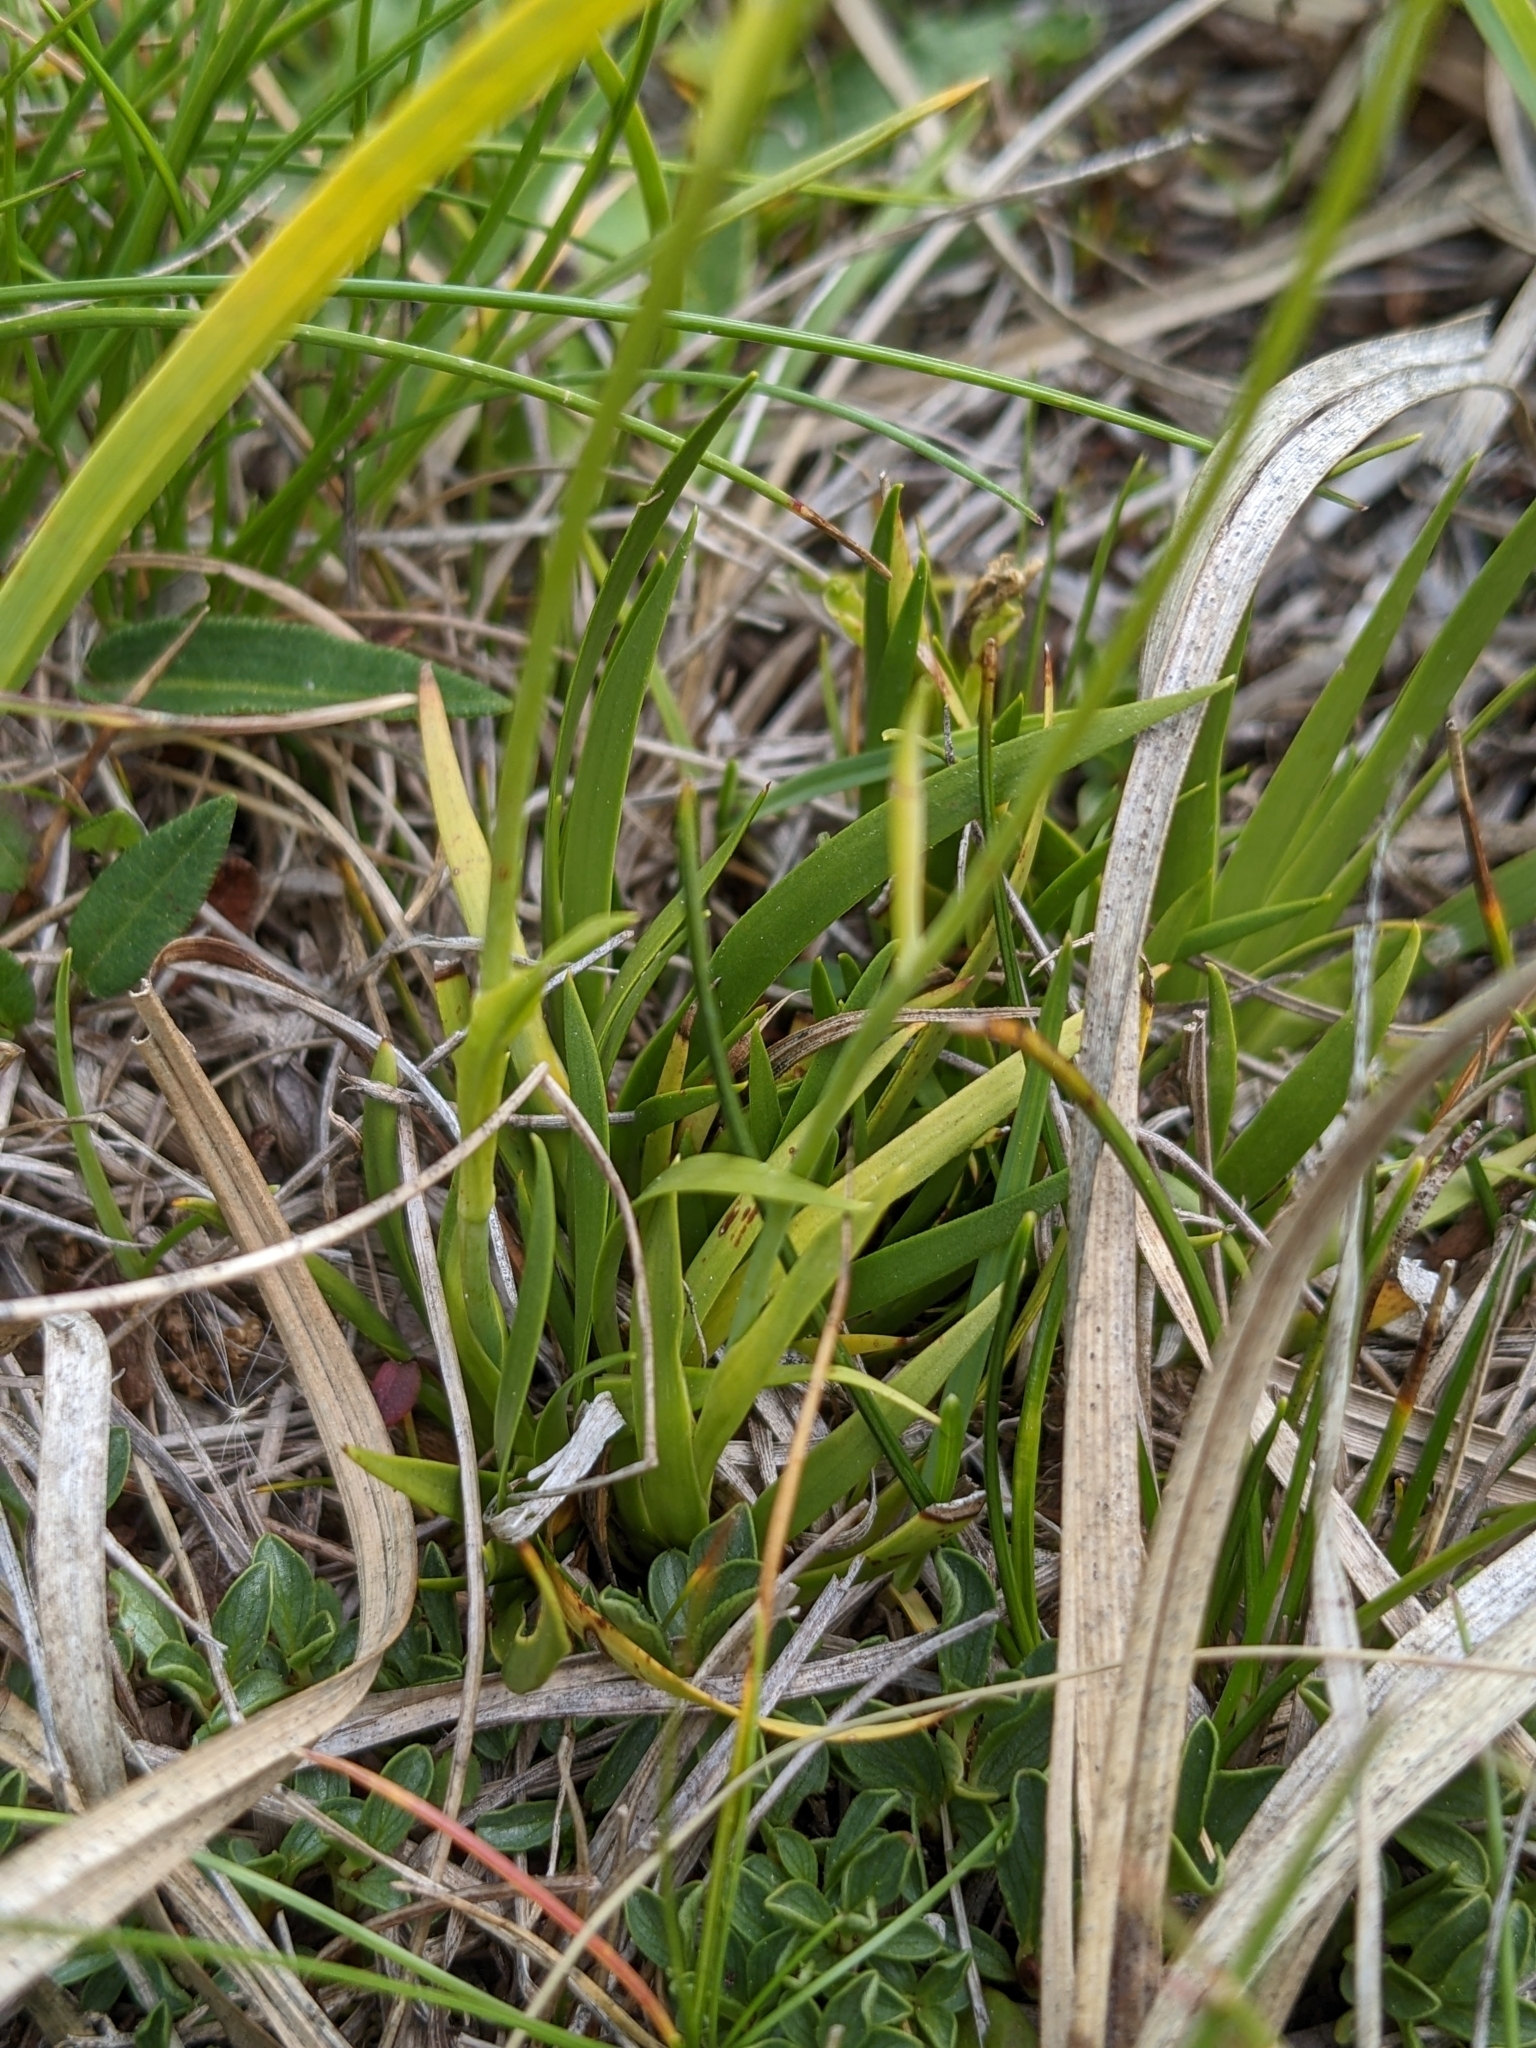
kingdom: Plantae
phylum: Tracheophyta
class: Liliopsida
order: Alismatales
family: Tofieldiaceae
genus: Tofieldia
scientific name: Tofieldia calyculata
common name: German-asphodel
